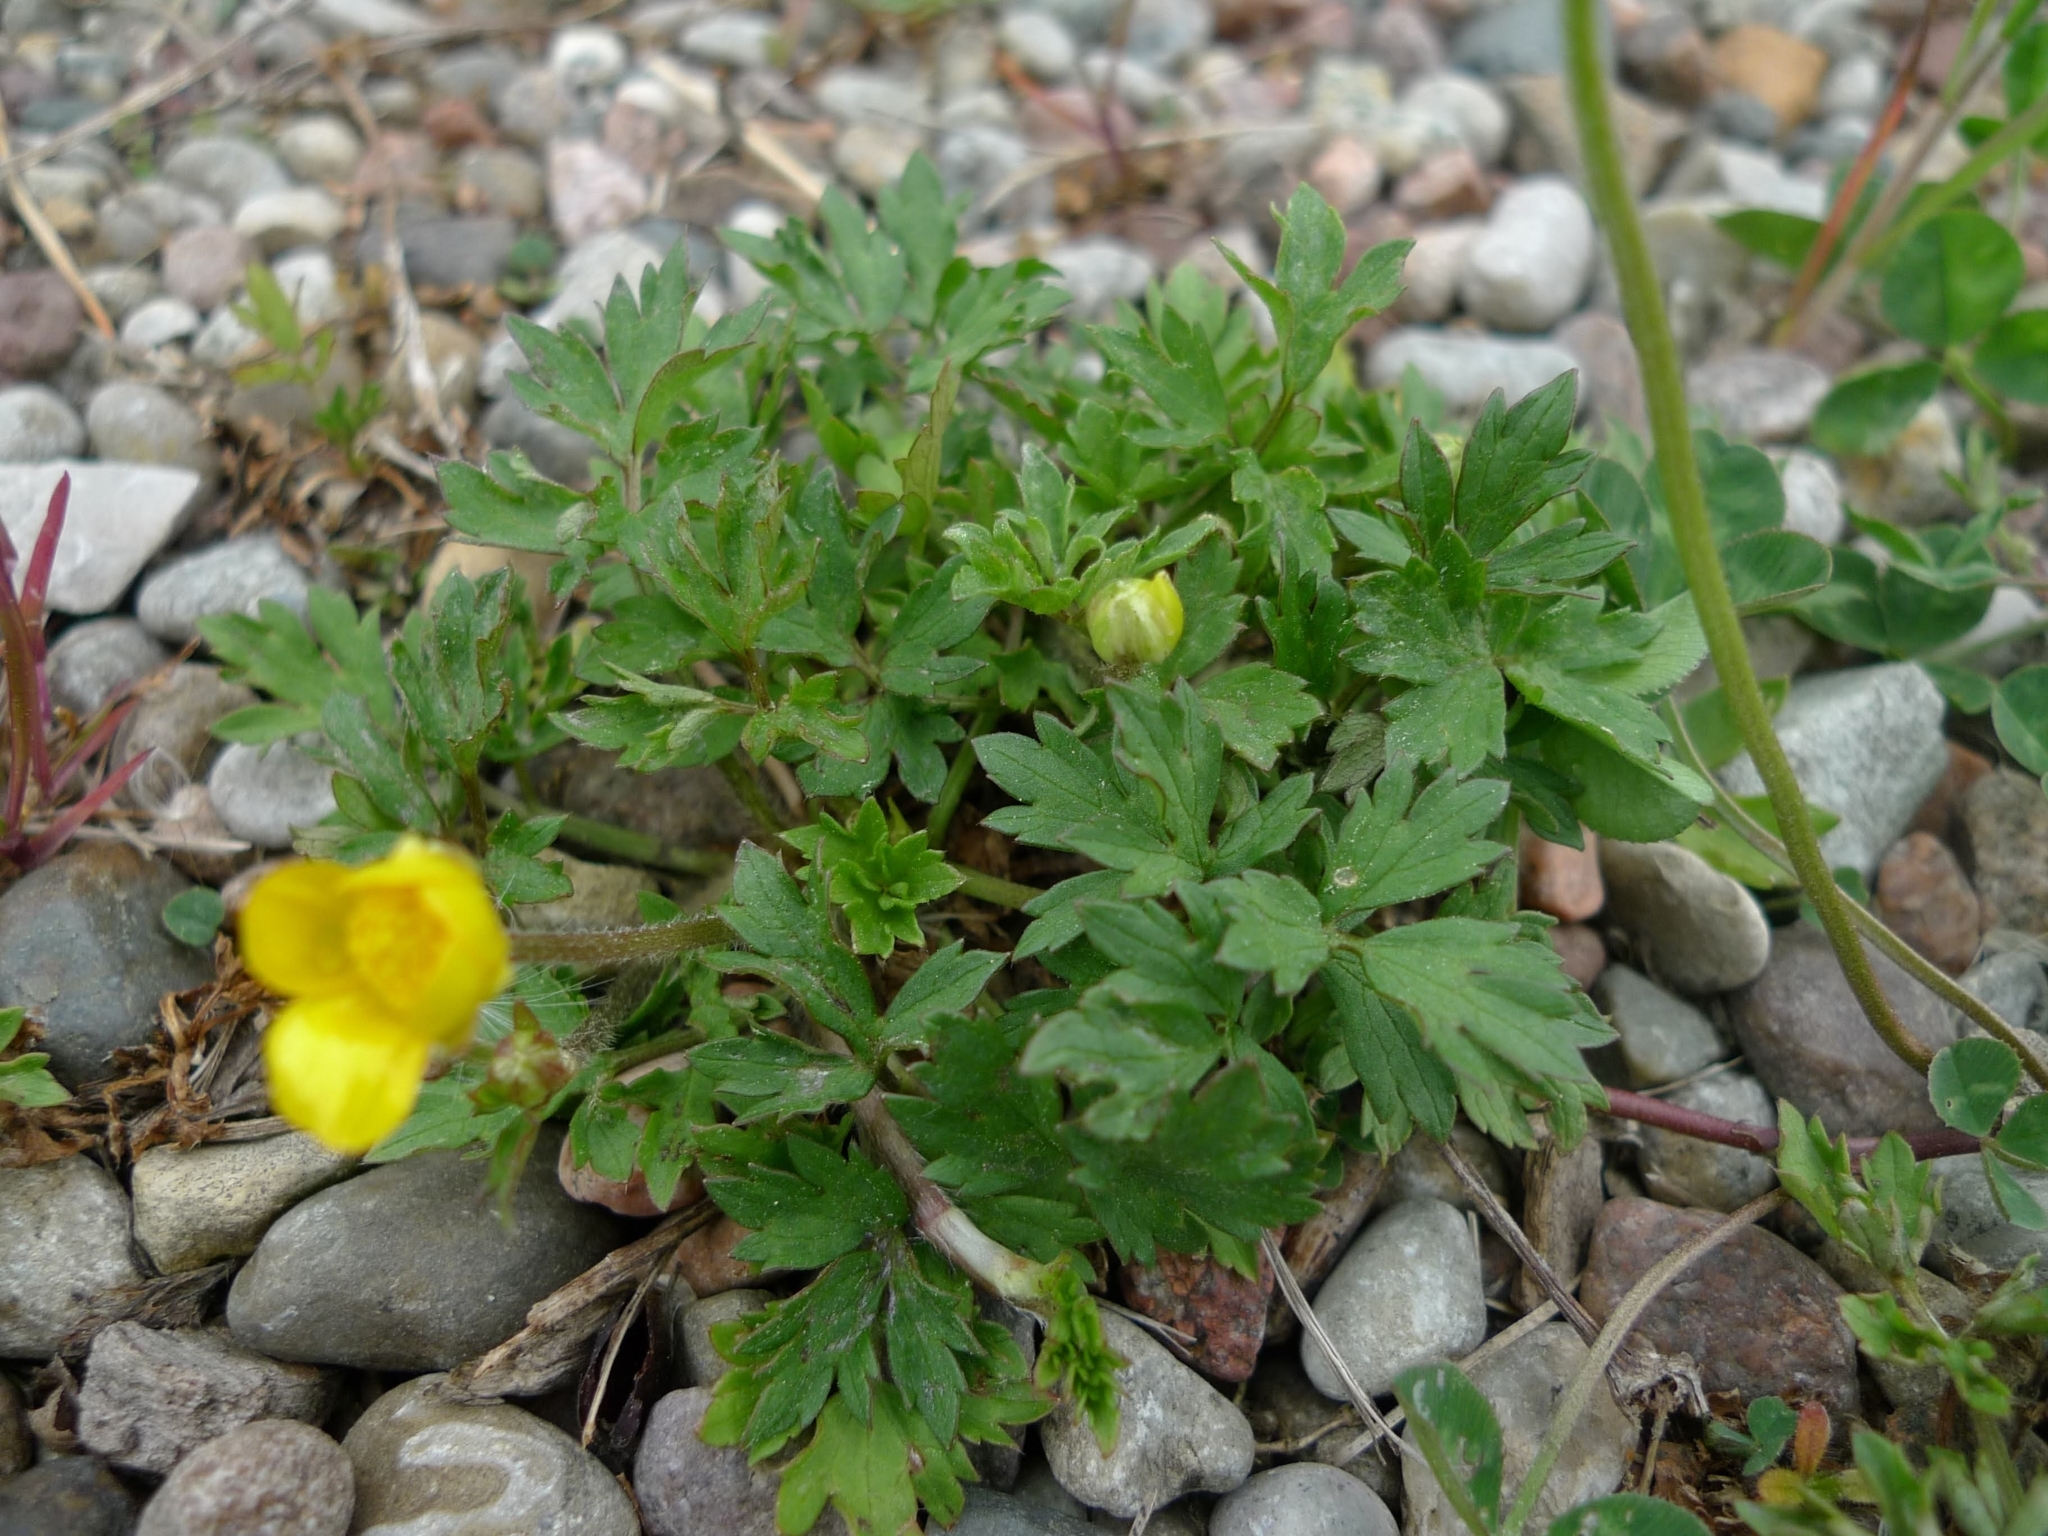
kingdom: Plantae
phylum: Tracheophyta
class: Magnoliopsida
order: Ranunculales
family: Ranunculaceae
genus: Ranunculus
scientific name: Ranunculus repens
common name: Creeping buttercup
